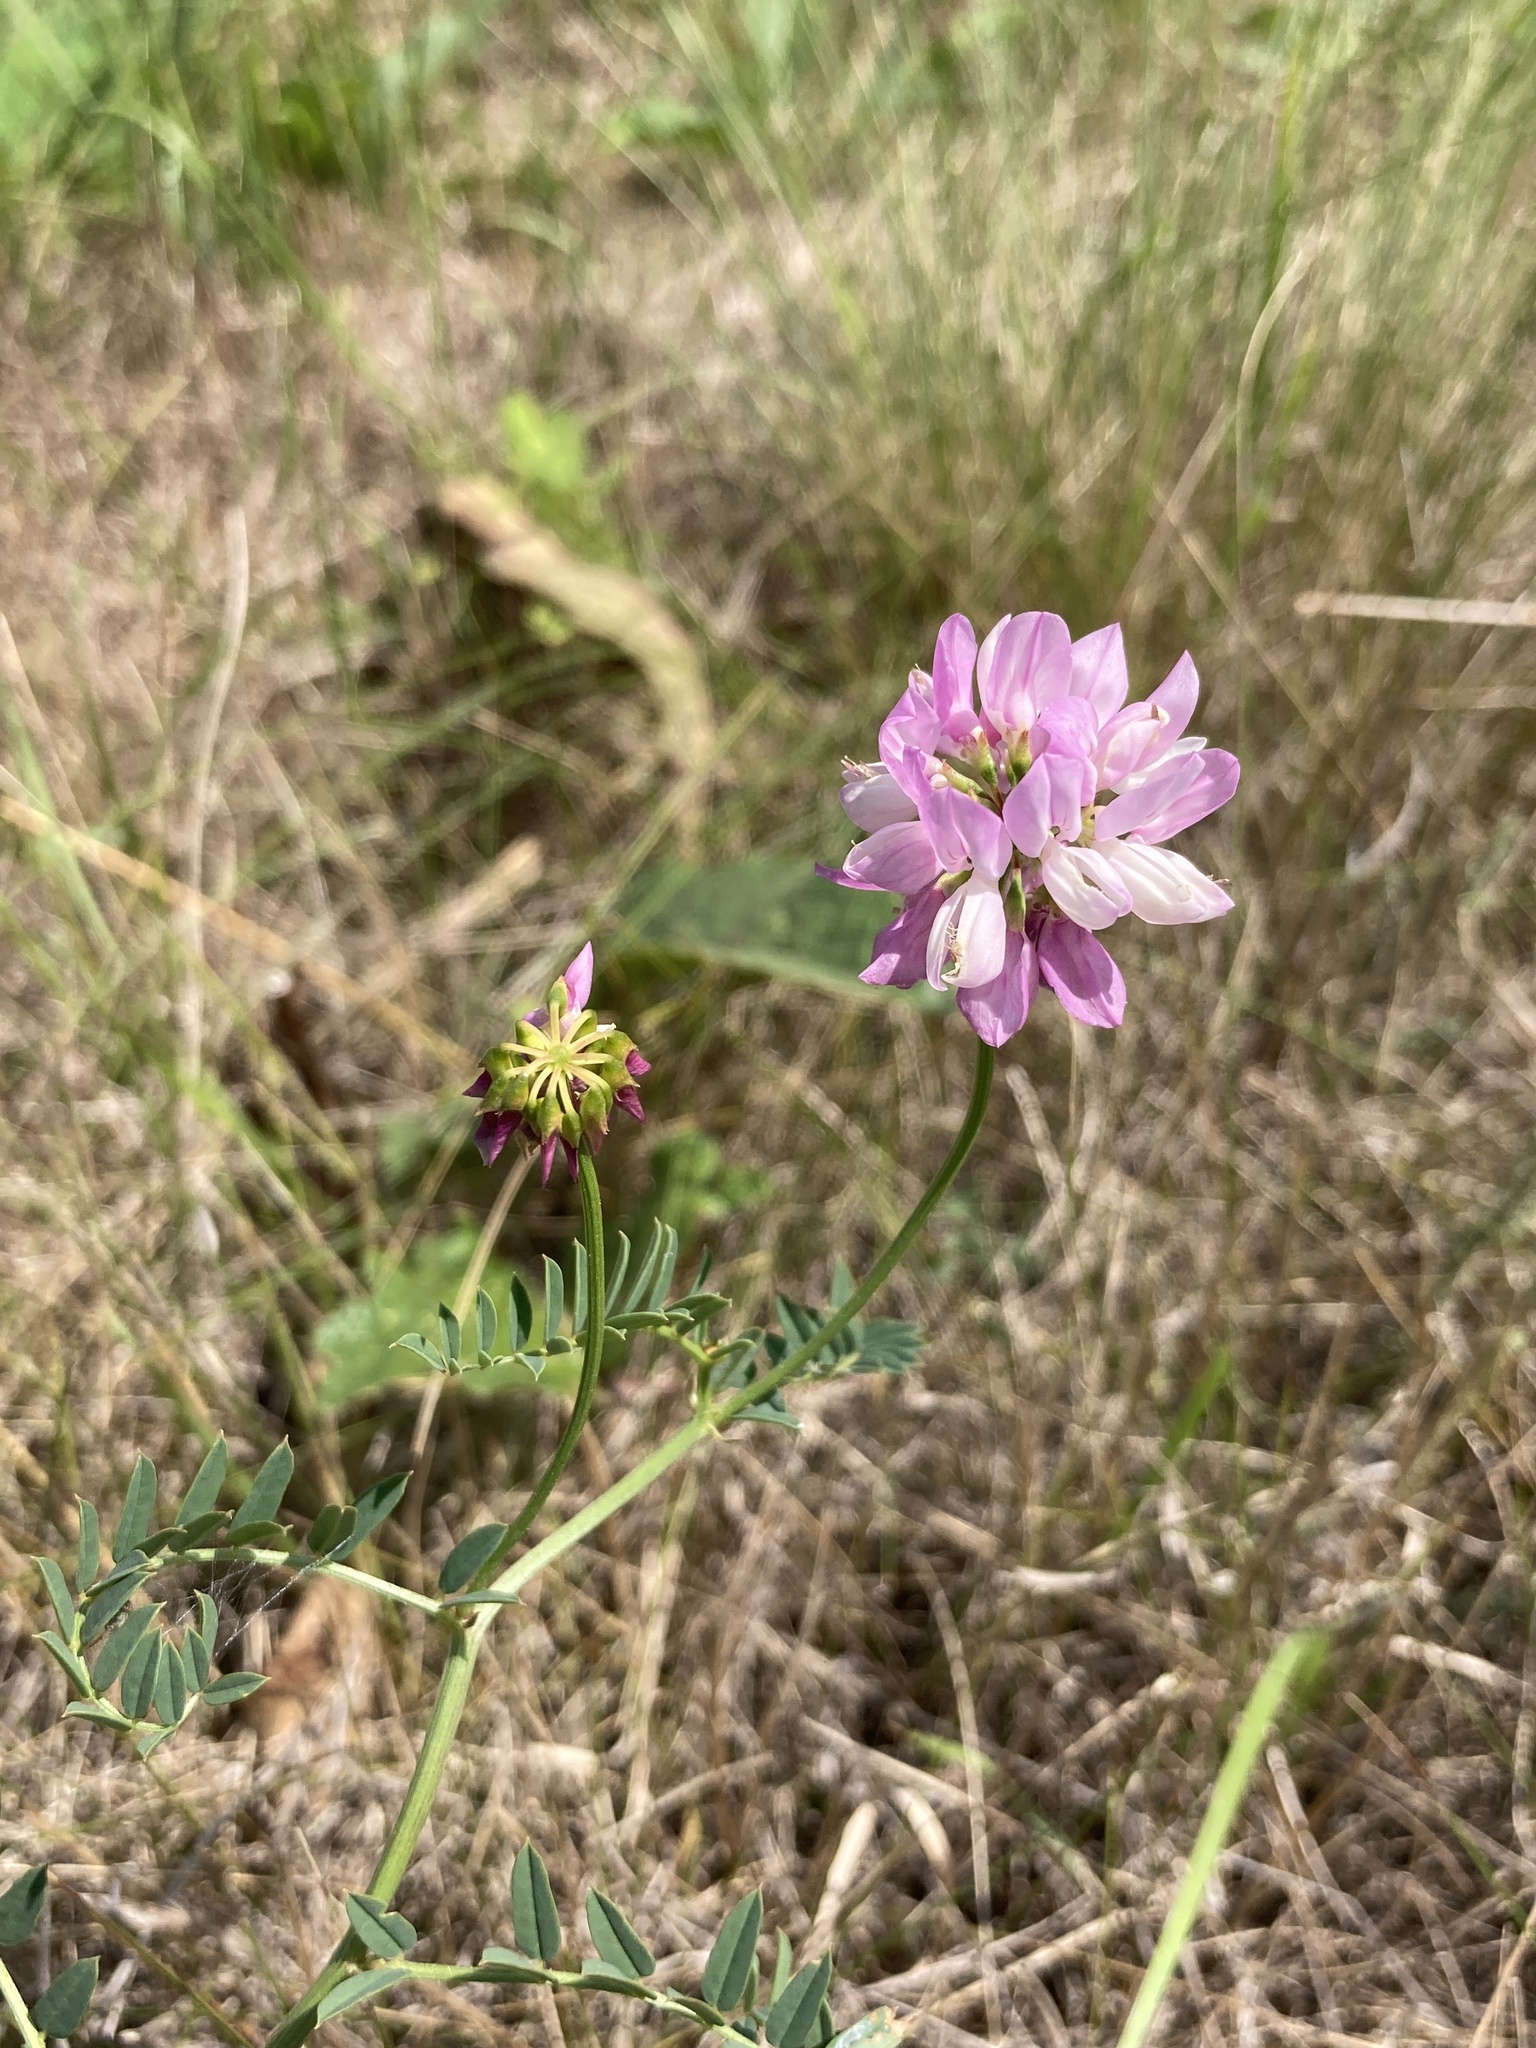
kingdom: Plantae
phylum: Tracheophyta
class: Magnoliopsida
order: Fabales
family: Fabaceae
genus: Coronilla
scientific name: Coronilla varia
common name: Crownvetch
